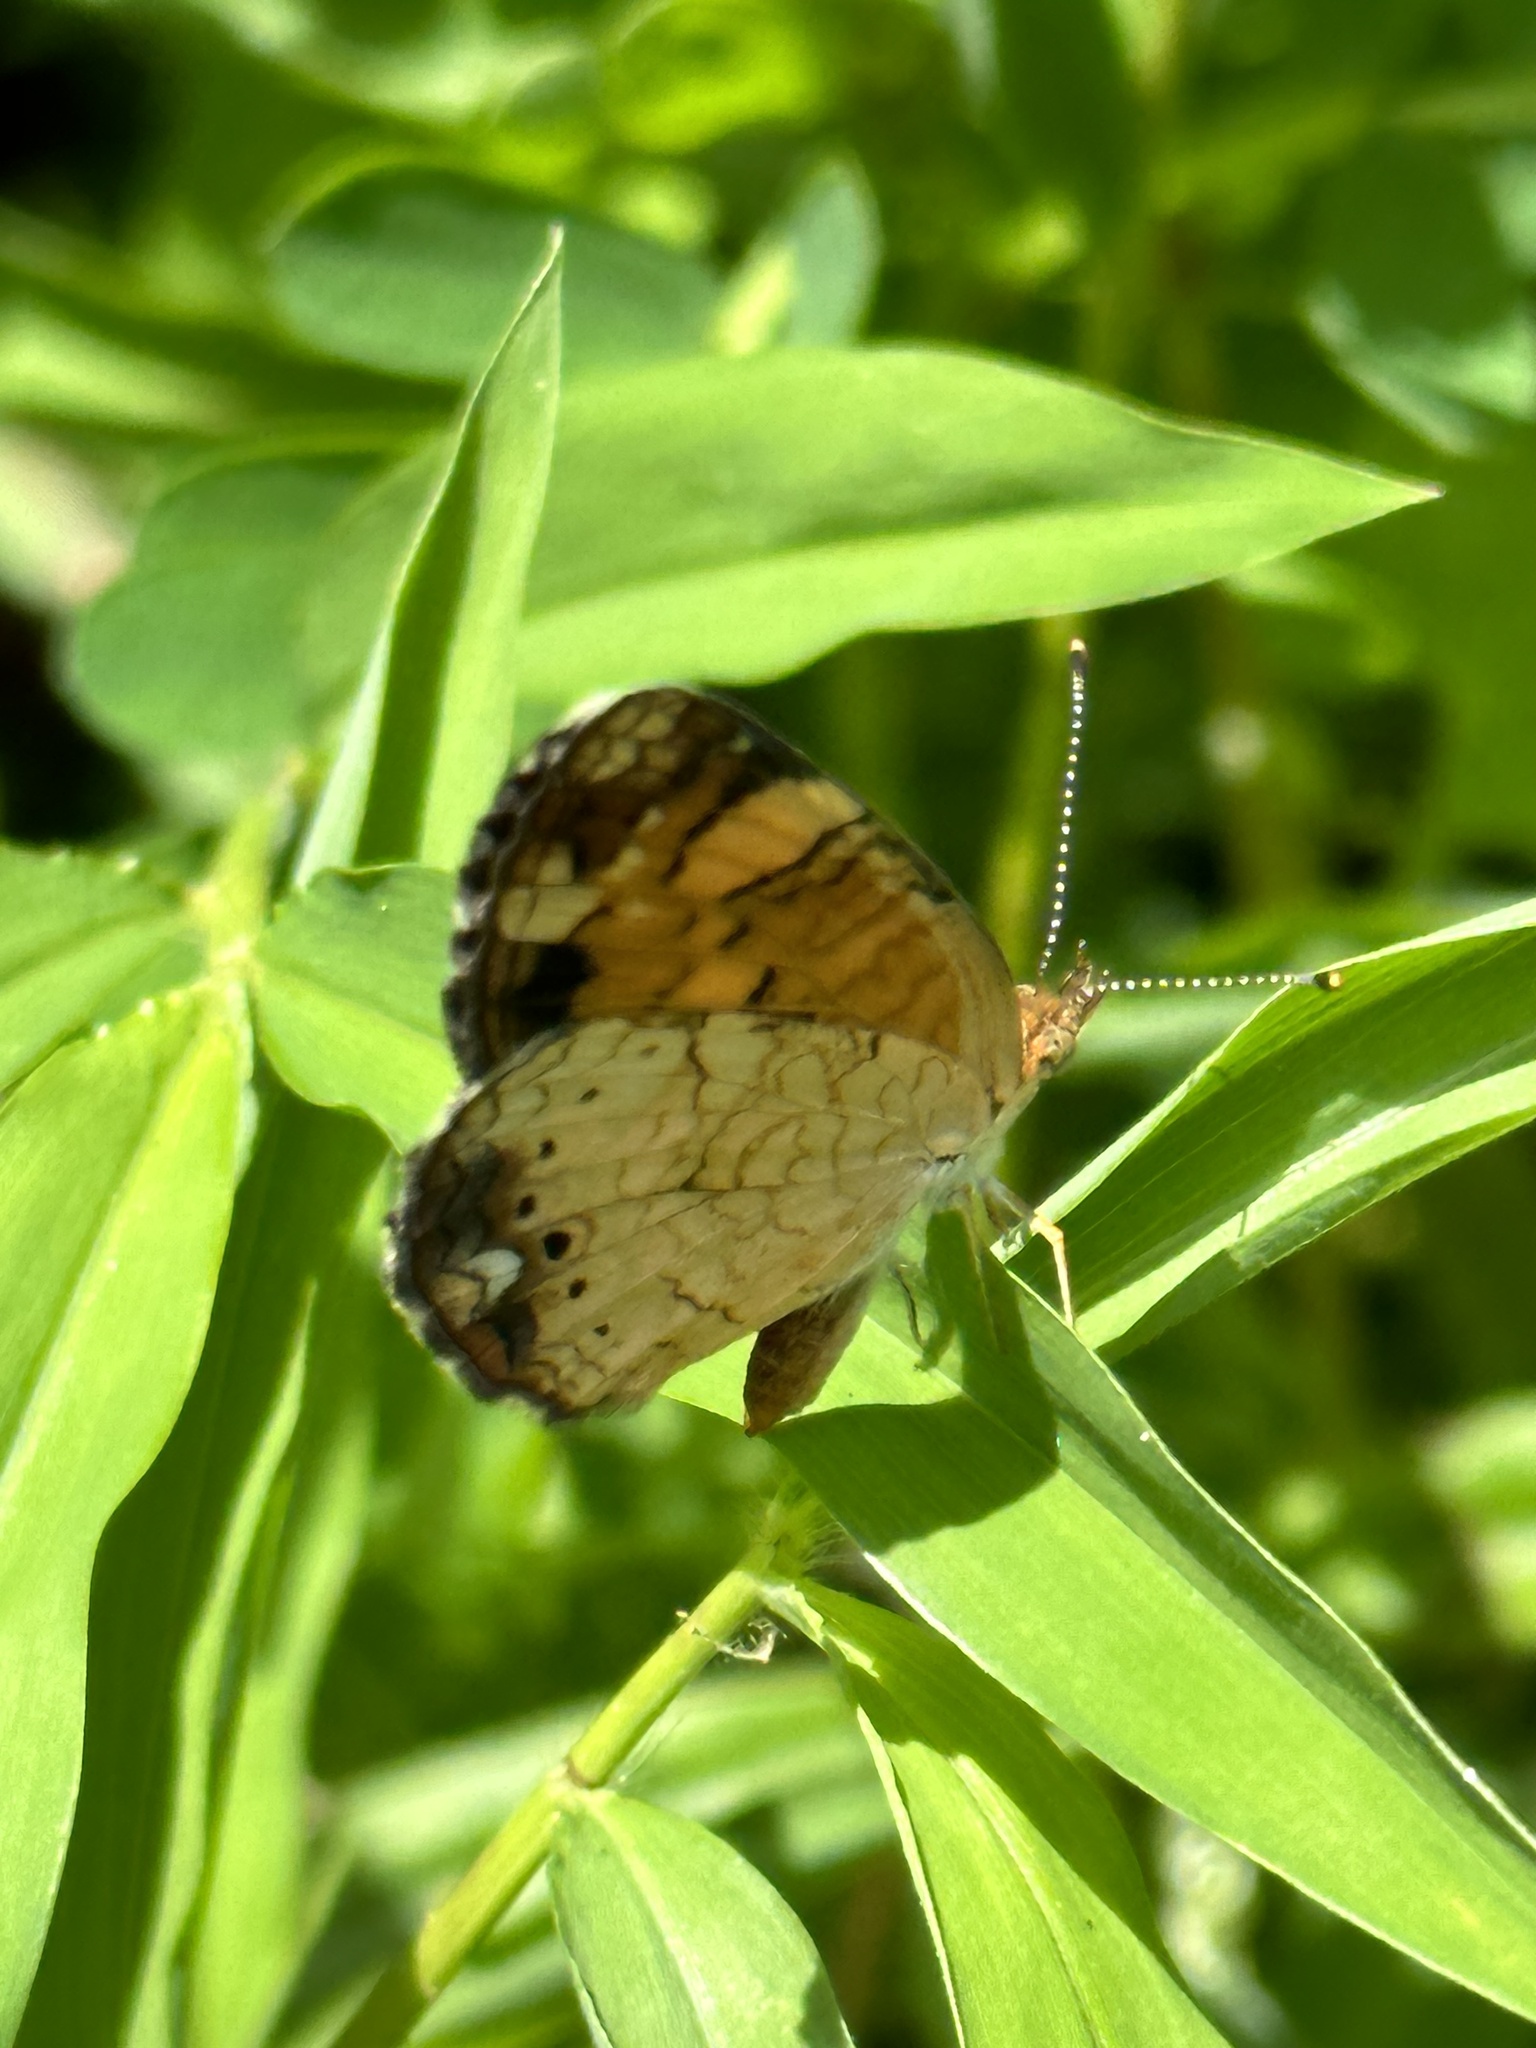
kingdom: Animalia
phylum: Arthropoda
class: Insecta
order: Lepidoptera
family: Nymphalidae
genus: Phyciodes
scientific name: Phyciodes tharos
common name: Pearl crescent
